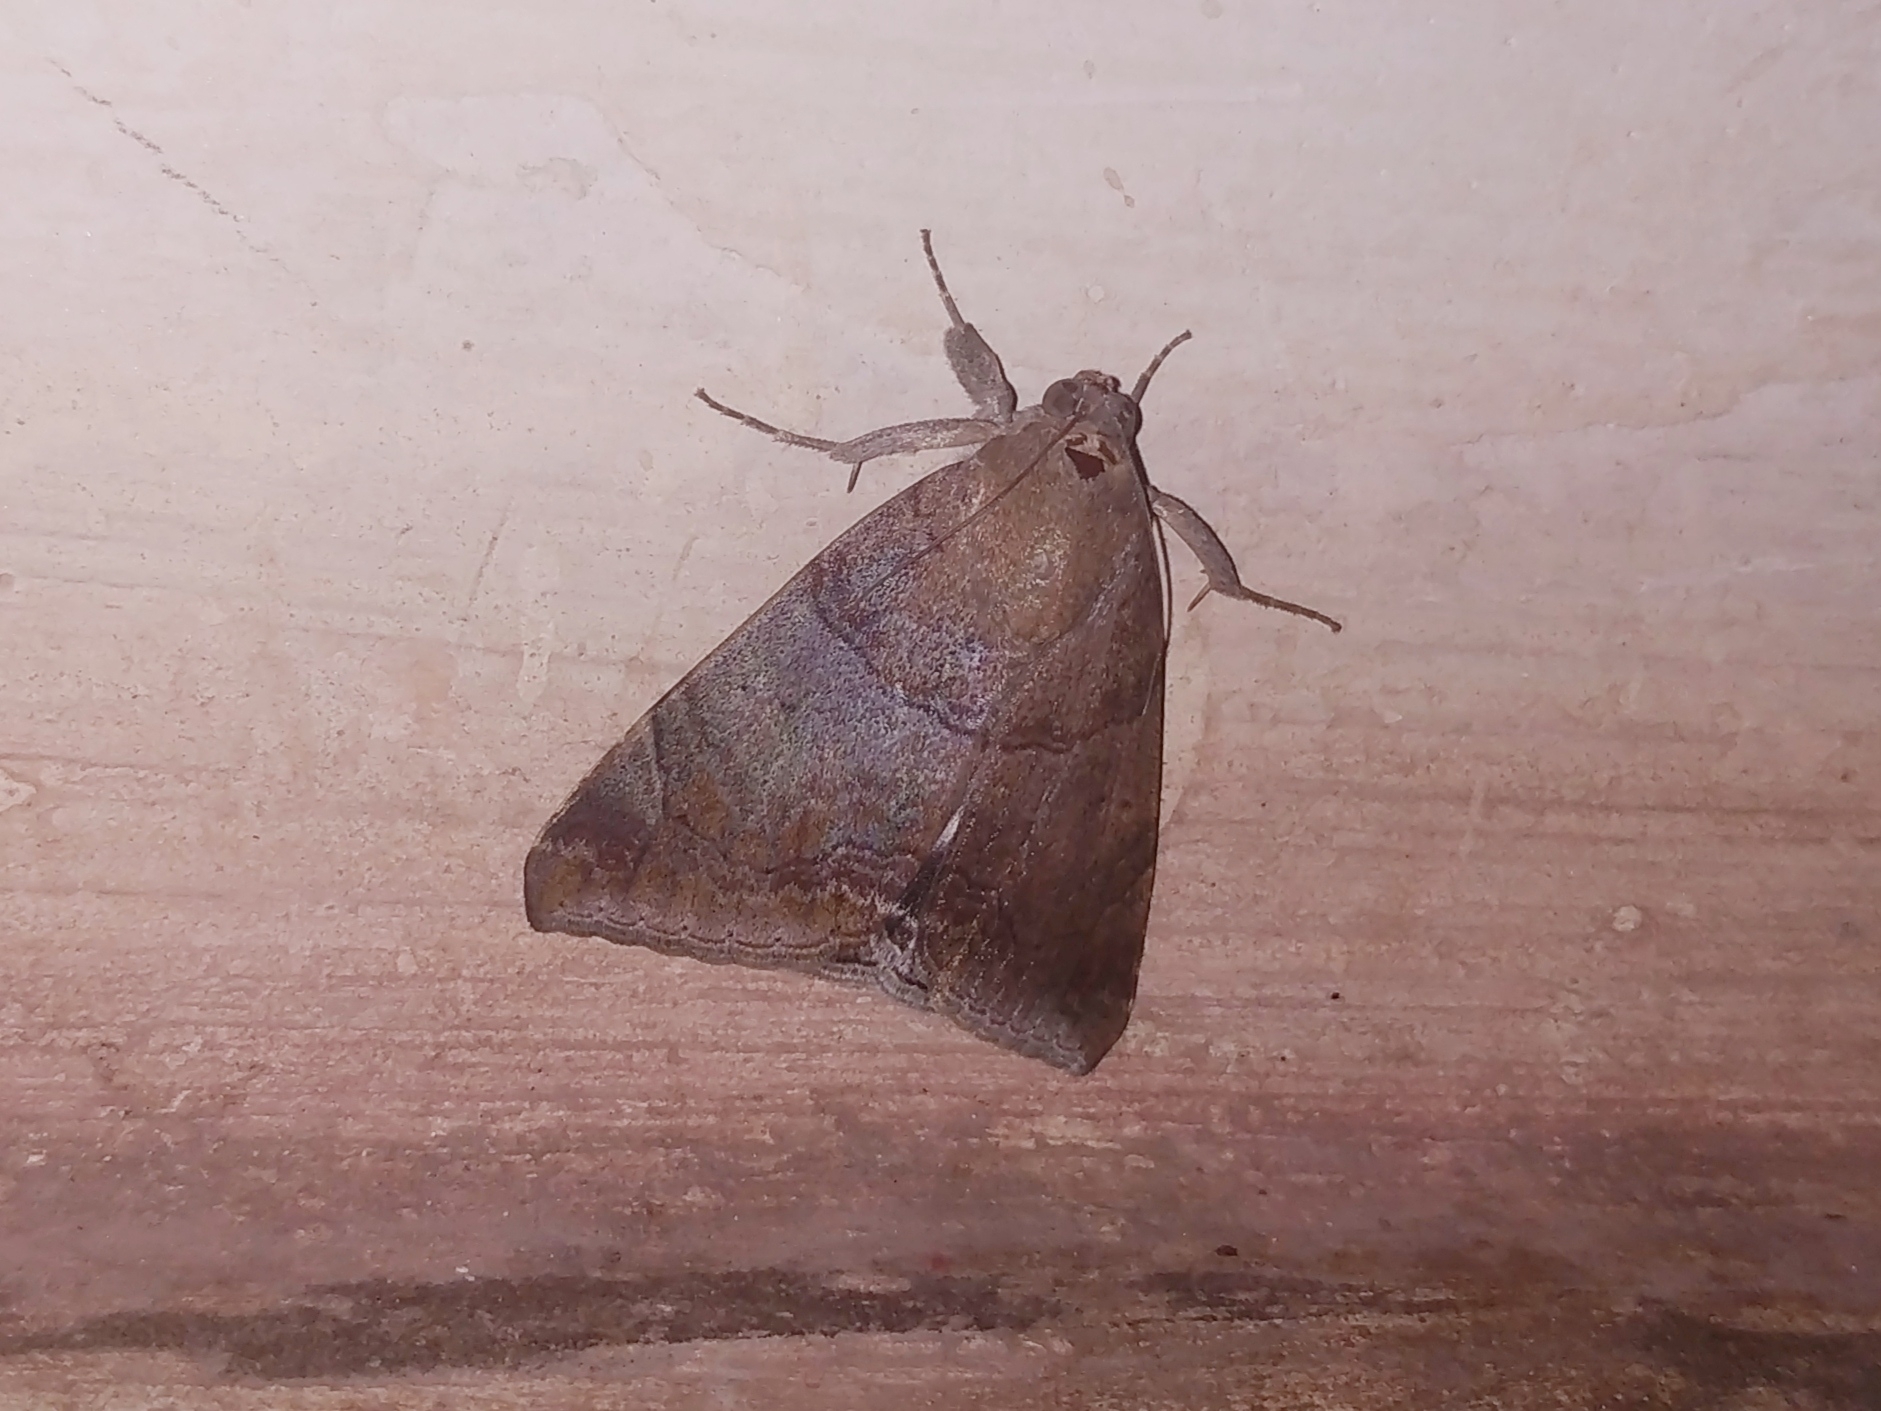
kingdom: Animalia
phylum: Arthropoda
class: Insecta
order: Lepidoptera
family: Erebidae
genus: Achaea
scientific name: Achaea janata
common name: Croton caterpillar
